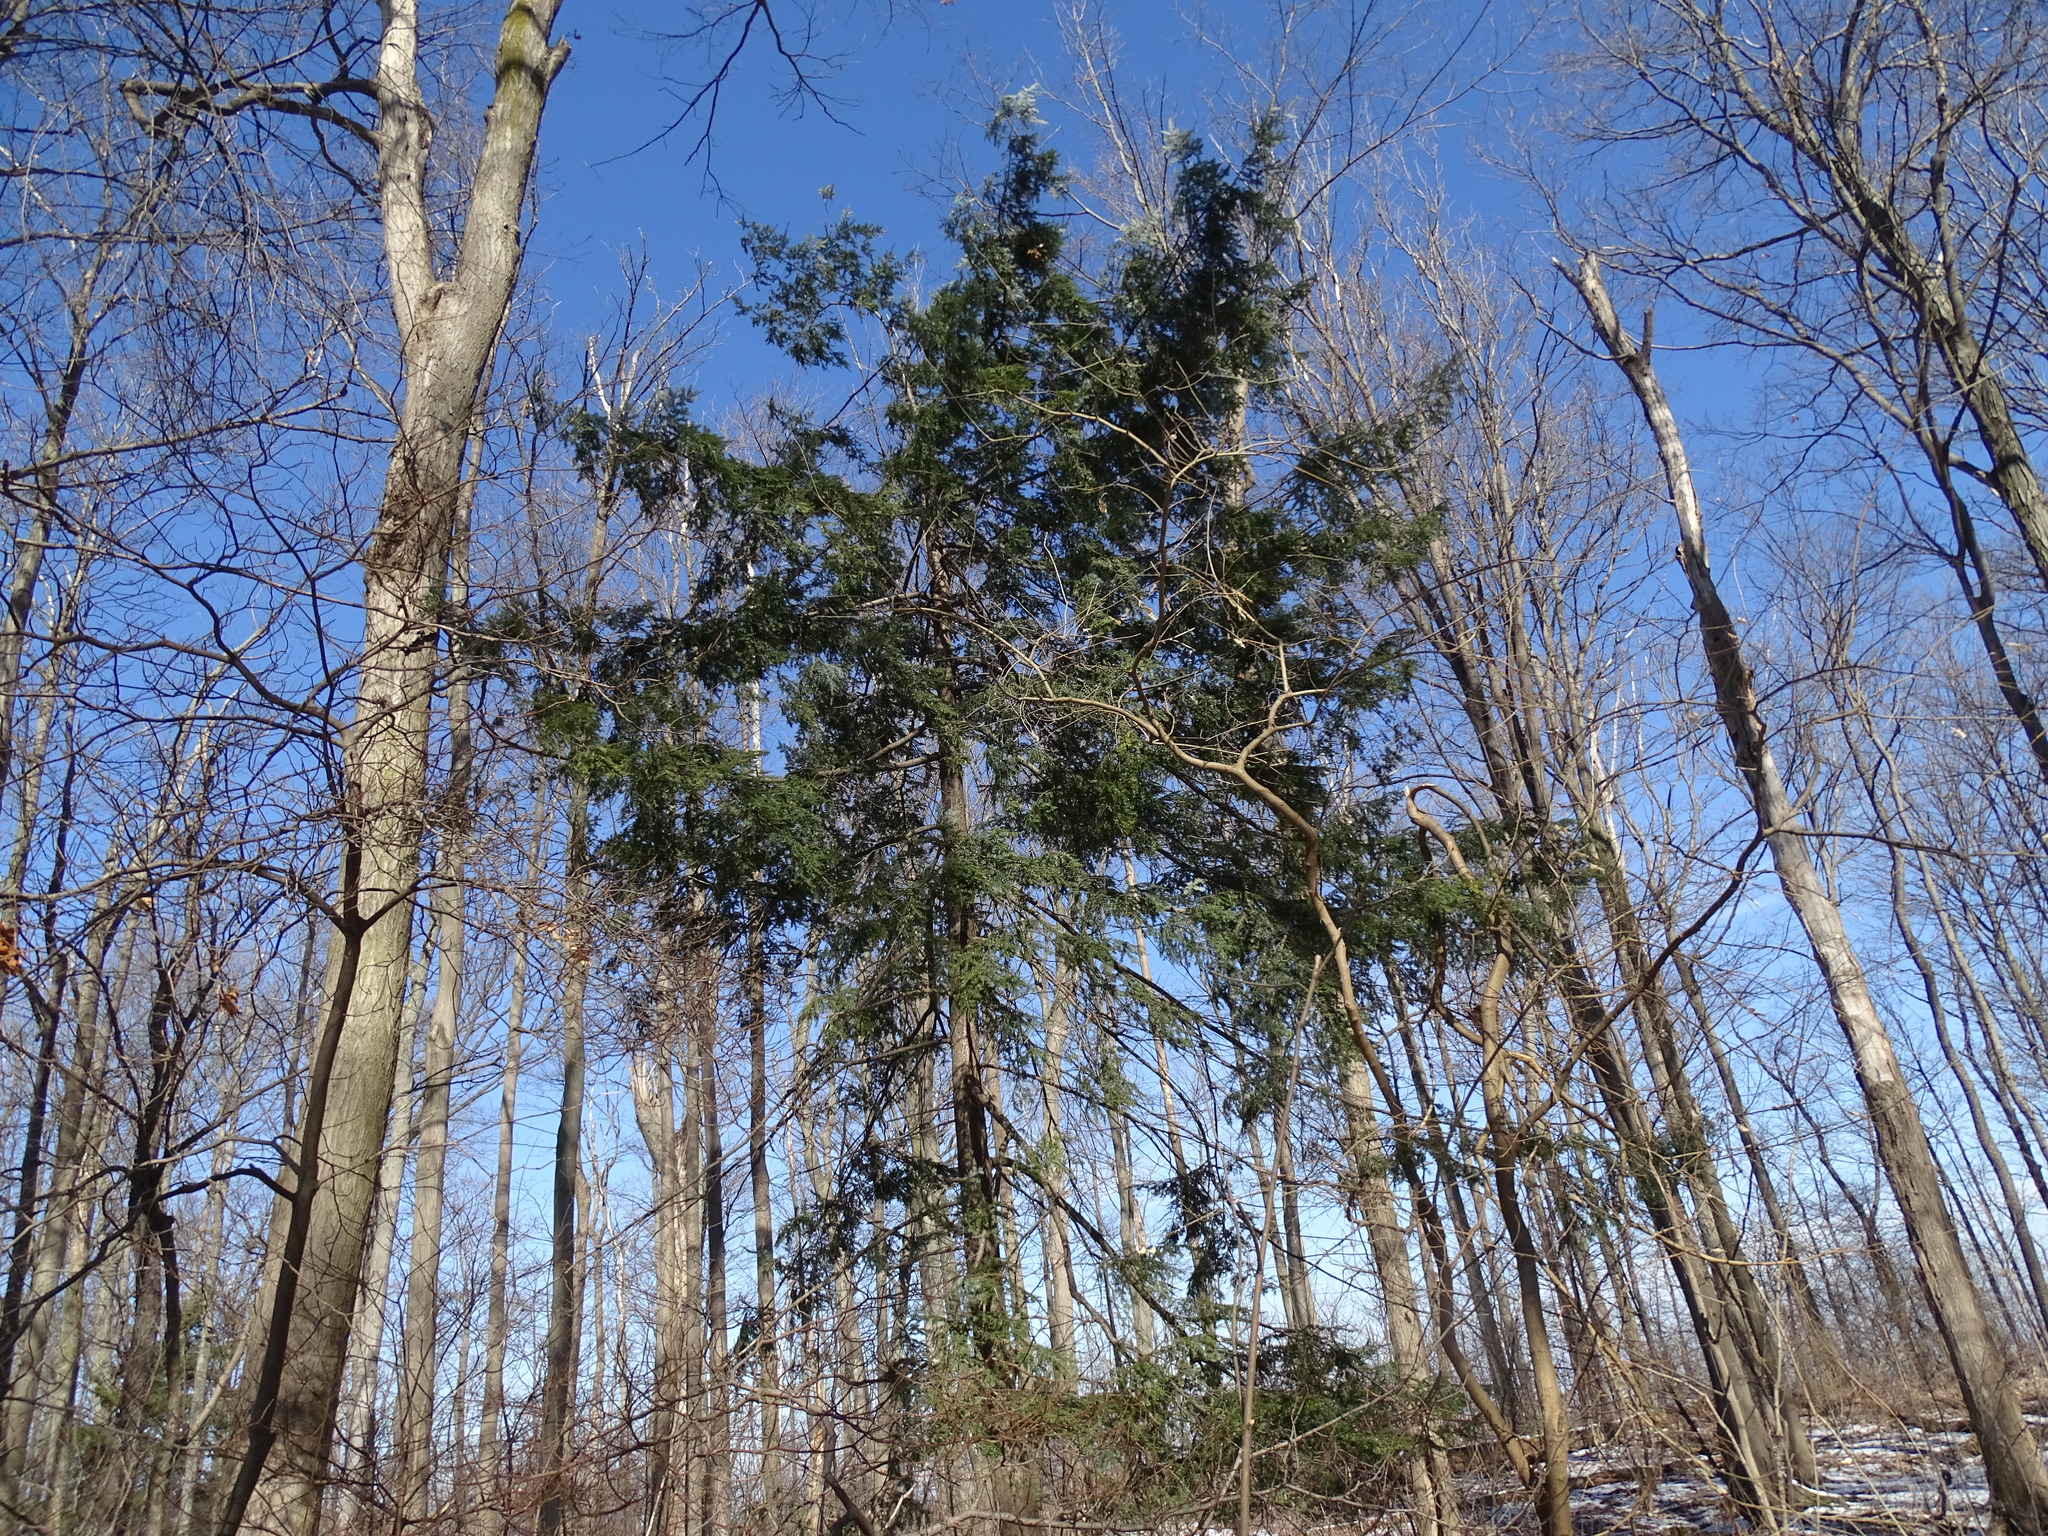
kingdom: Plantae
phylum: Tracheophyta
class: Pinopsida
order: Pinales
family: Pinaceae
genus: Tsuga
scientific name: Tsuga canadensis
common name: Eastern hemlock
